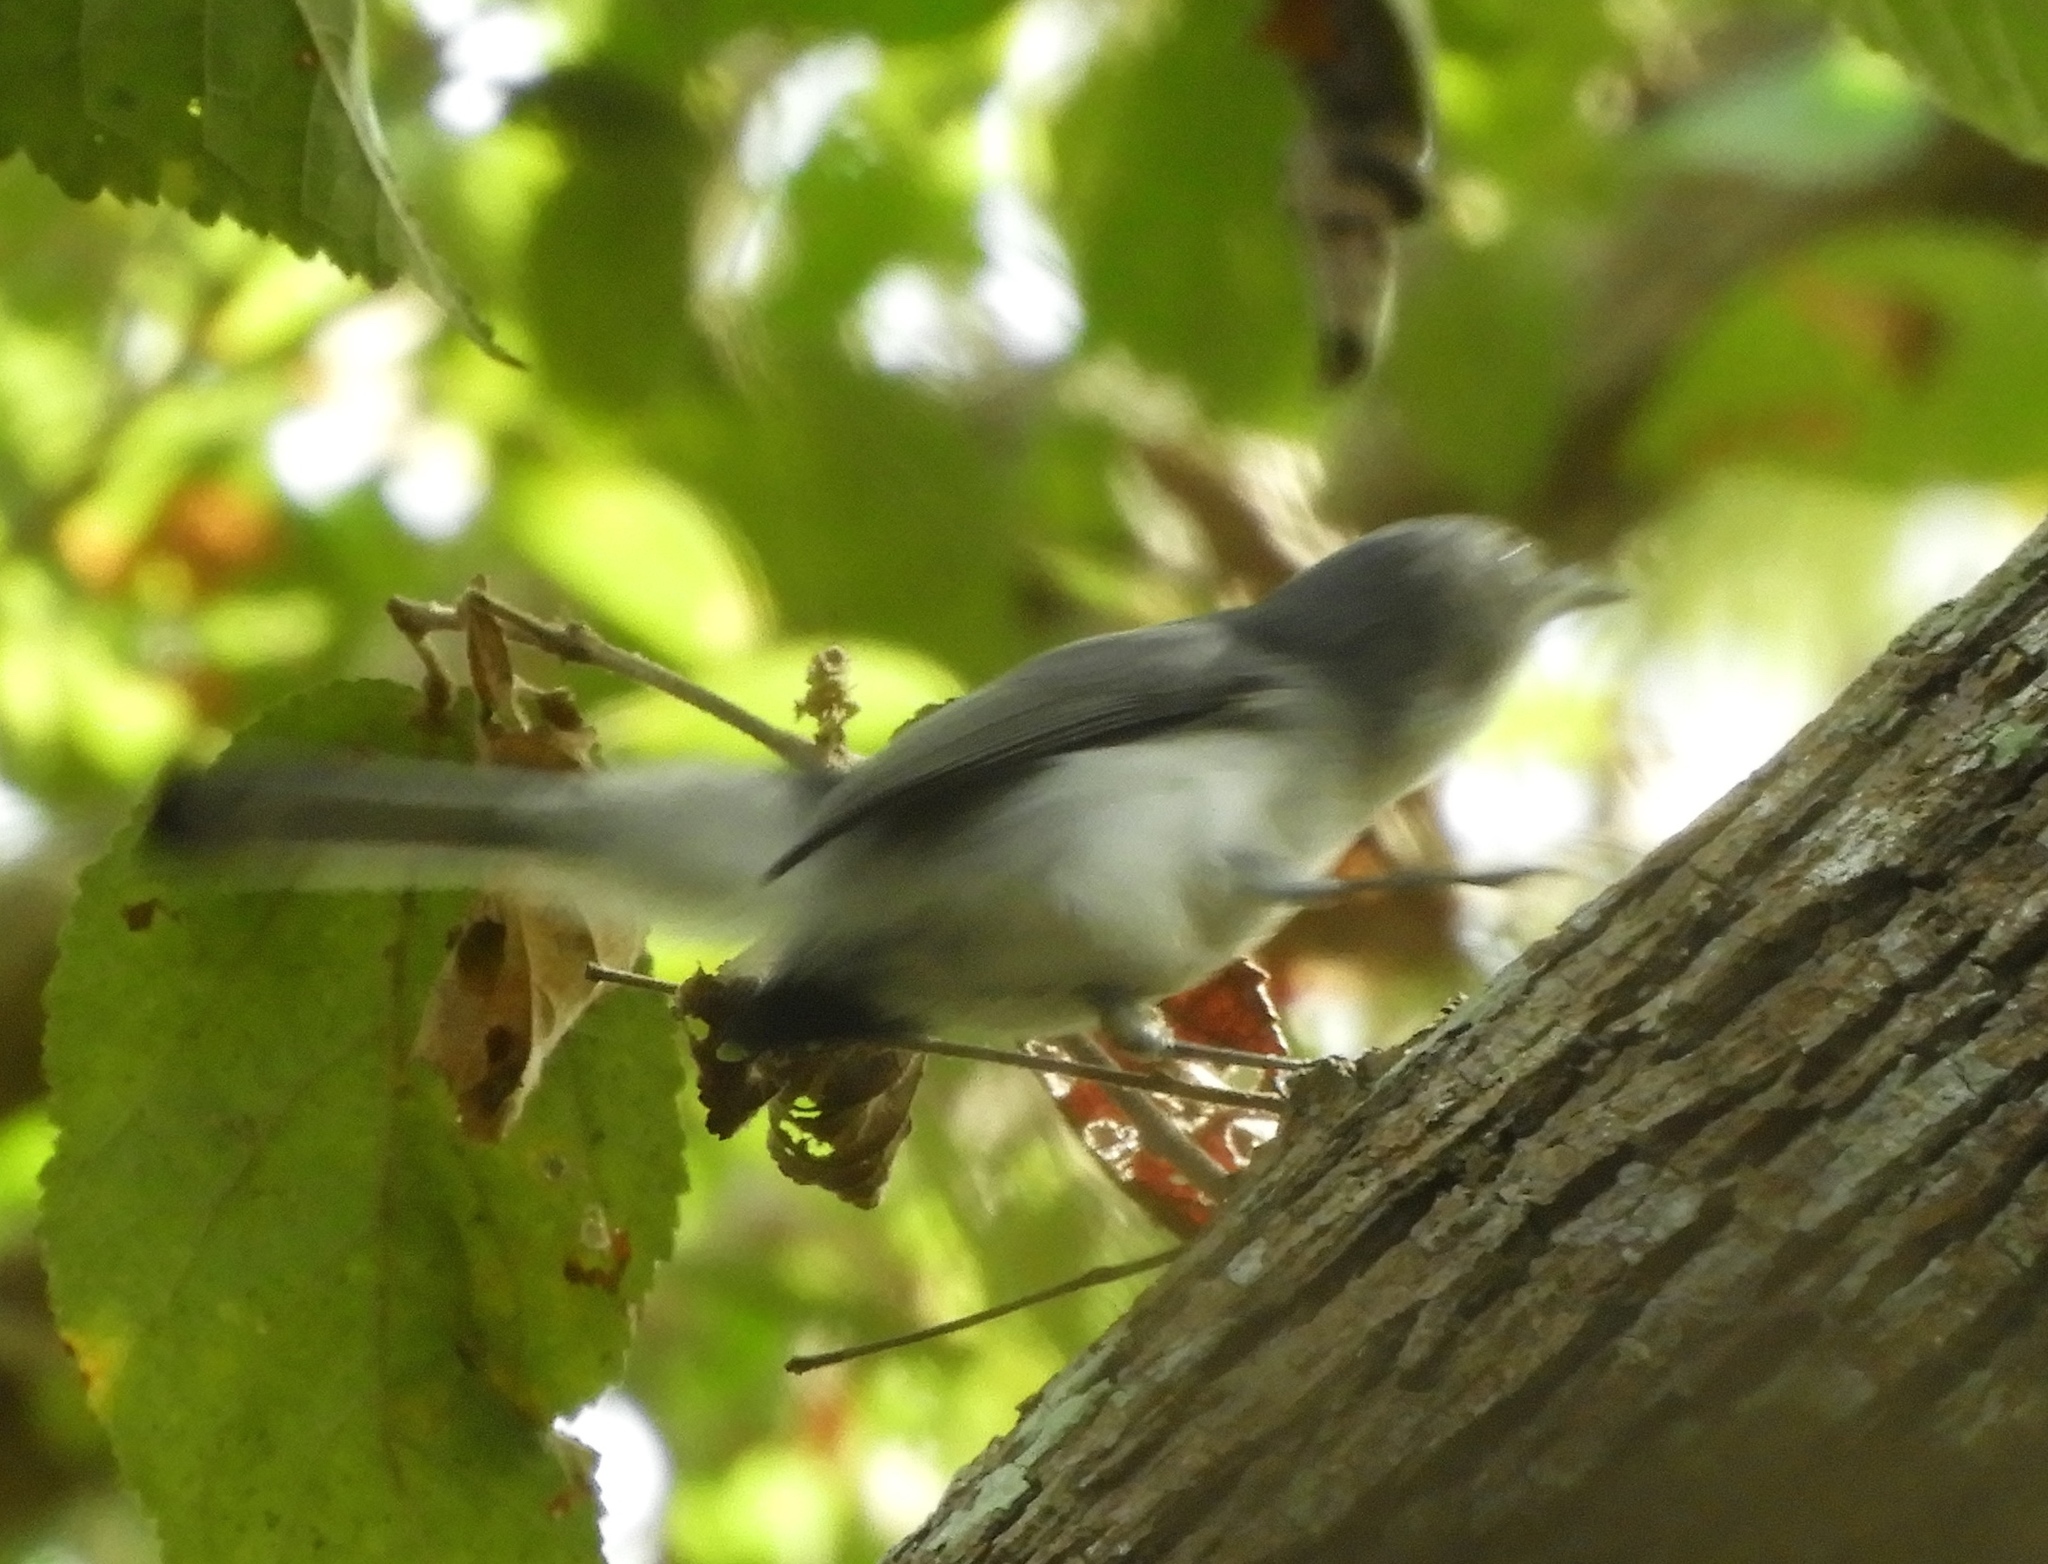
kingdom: Animalia
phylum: Chordata
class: Aves
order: Passeriformes
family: Polioptilidae
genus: Polioptila
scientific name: Polioptila caerulea
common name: Blue-gray gnatcatcher
